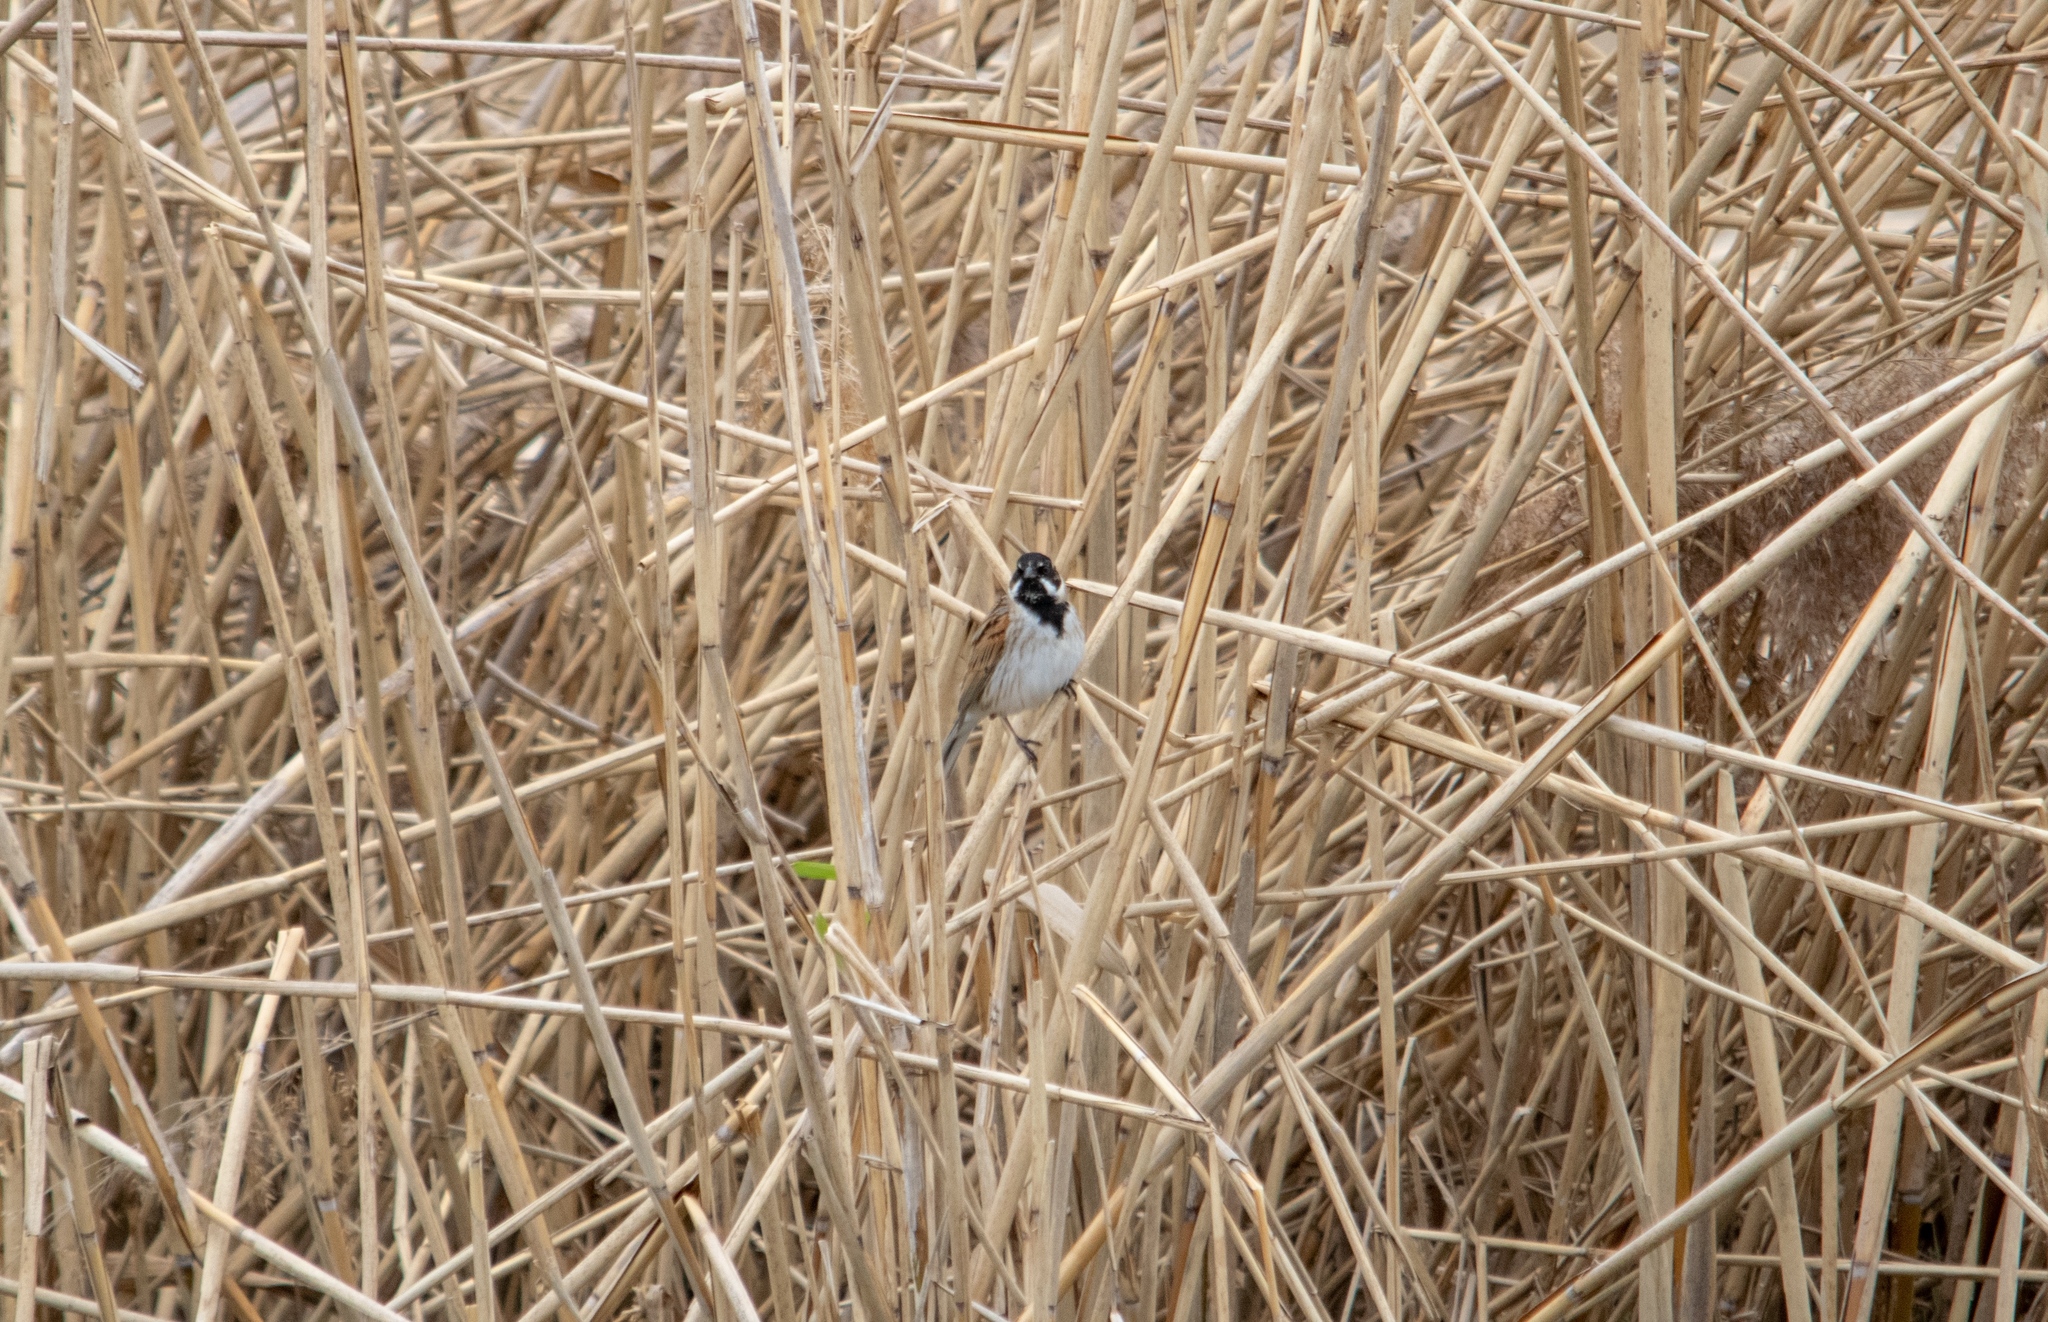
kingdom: Animalia
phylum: Chordata
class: Aves
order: Passeriformes
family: Emberizidae
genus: Emberiza
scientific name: Emberiza schoeniclus
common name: Reed bunting
